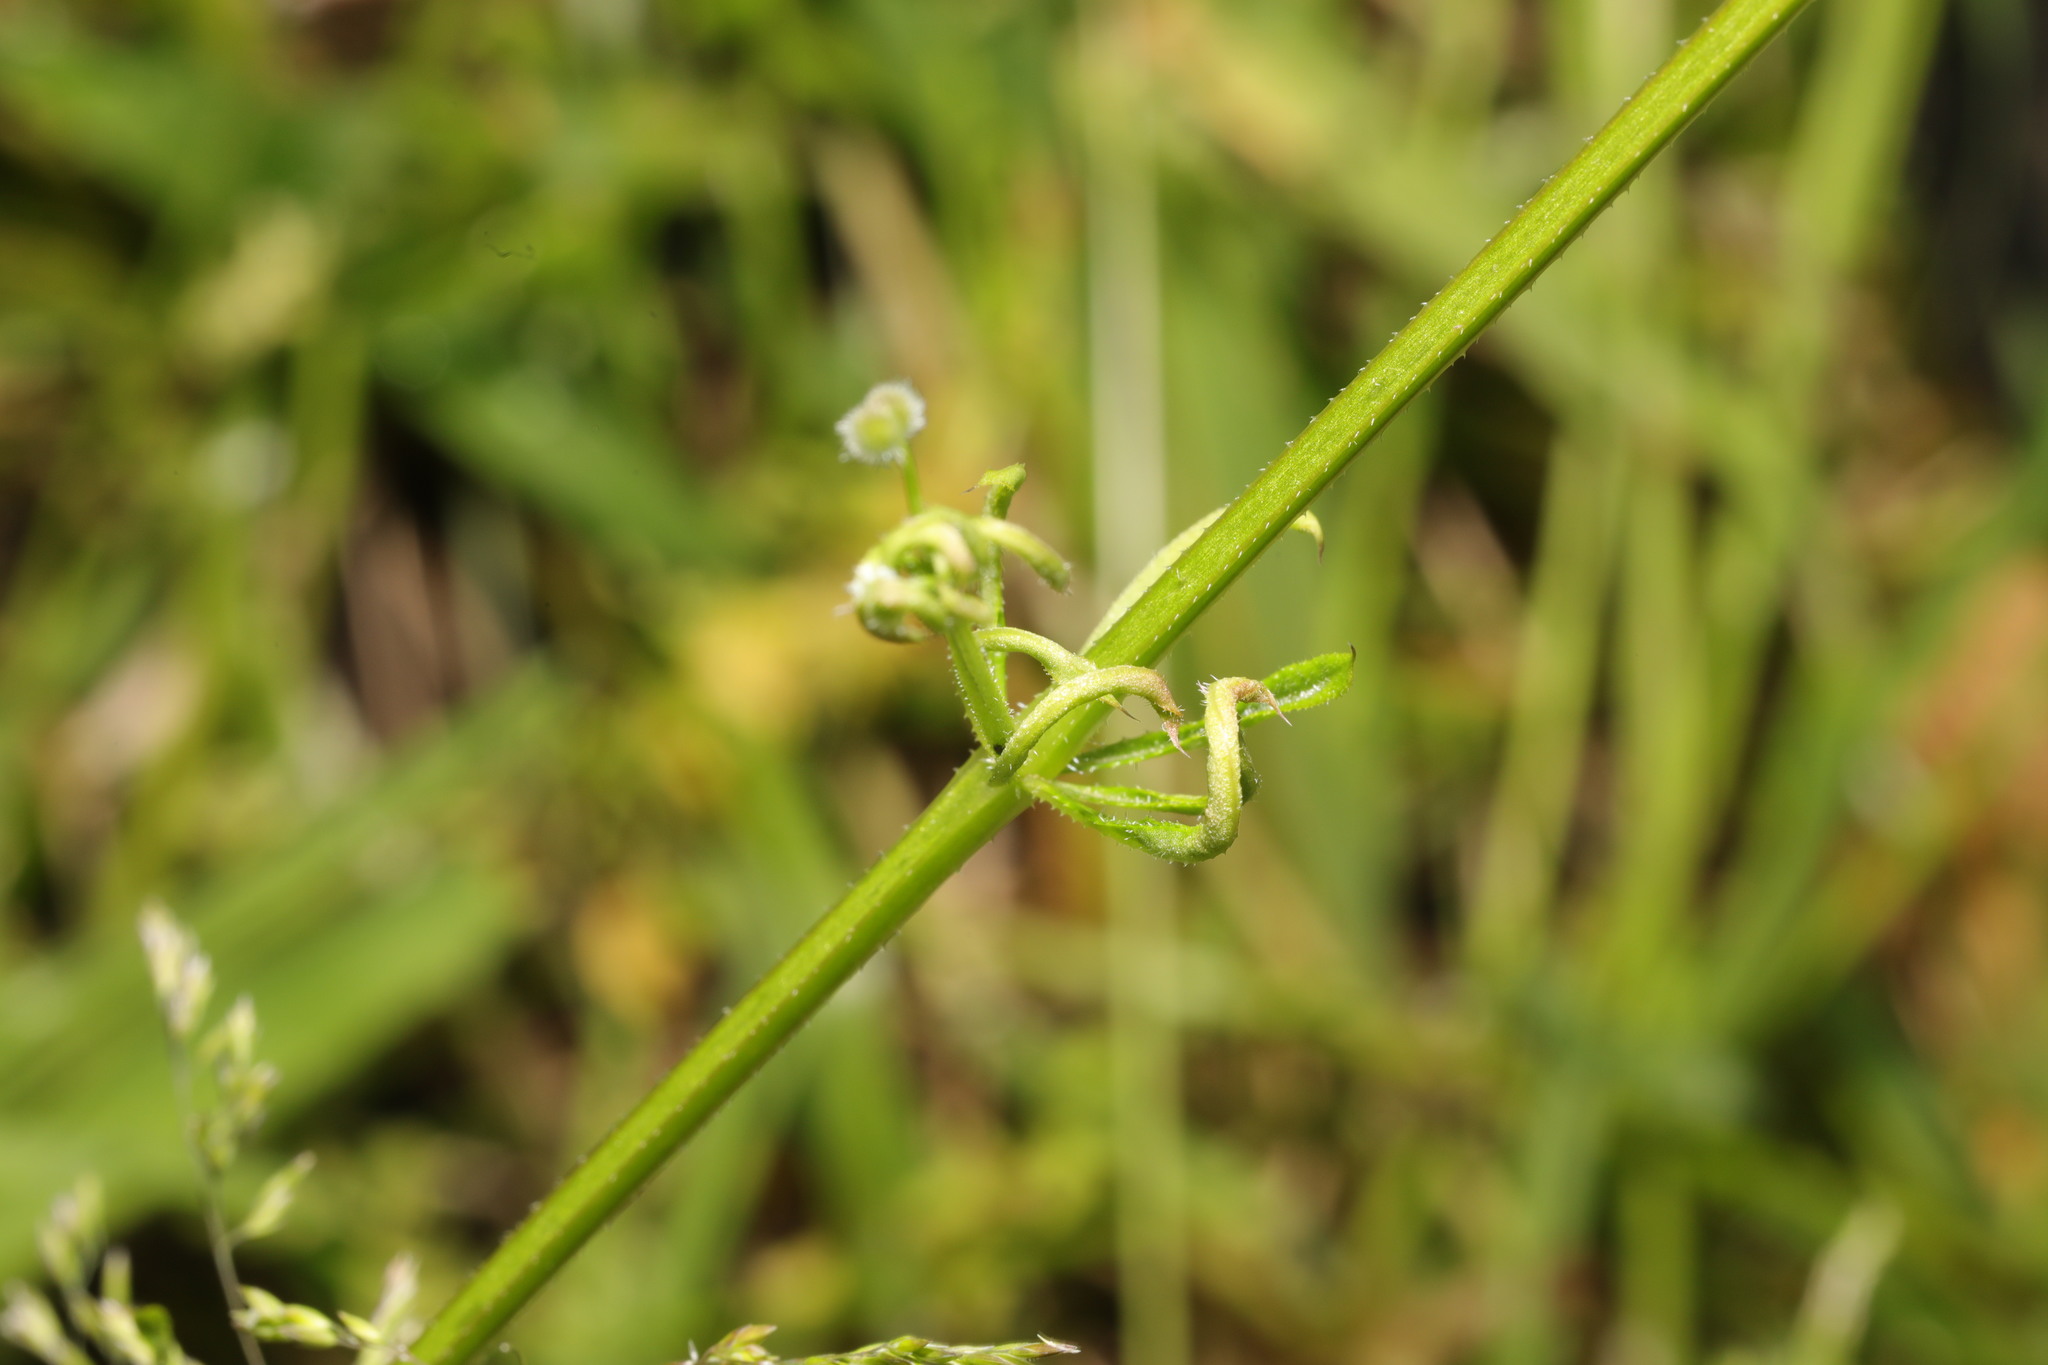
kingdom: Animalia
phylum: Arthropoda
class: Arachnida
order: Trombidiformes
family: Eriophyidae
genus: Cecidophyes
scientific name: Cecidophyes rouhollahi
